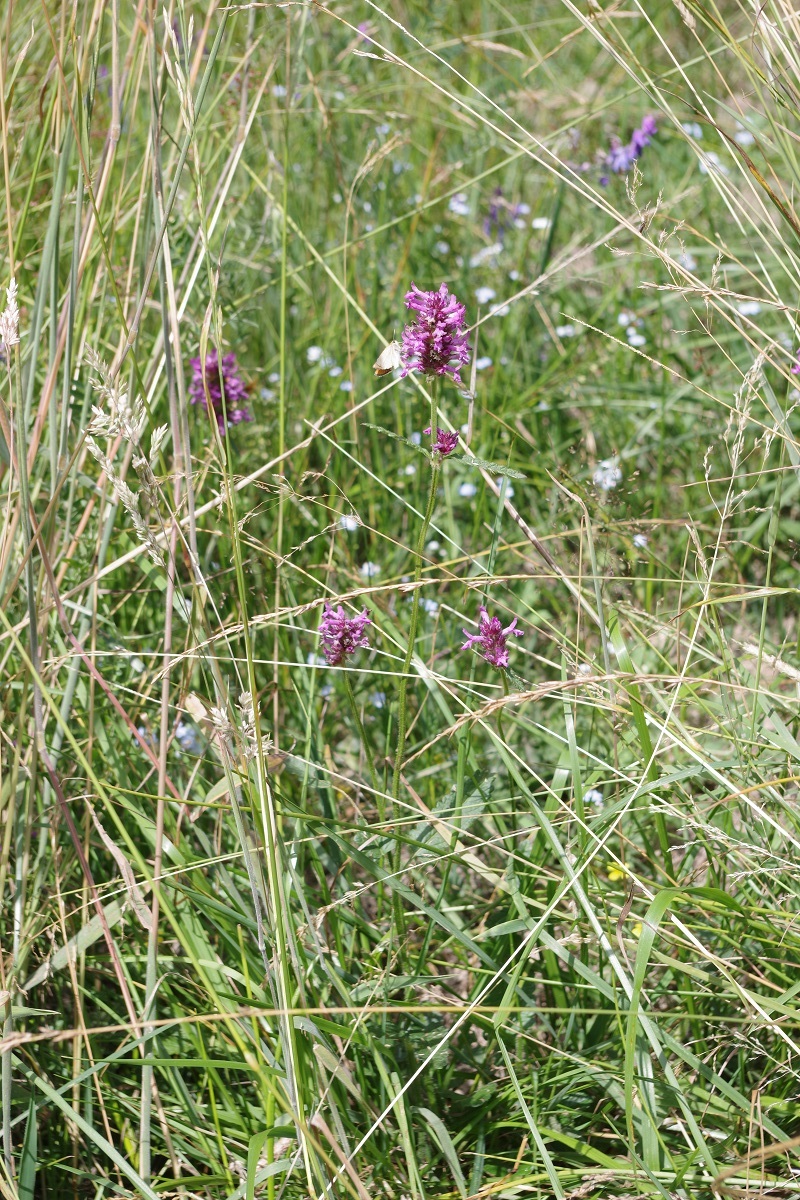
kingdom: Plantae
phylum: Tracheophyta
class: Magnoliopsida
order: Lamiales
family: Lamiaceae
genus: Betonica
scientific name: Betonica officinalis
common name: Bishop's-wort
